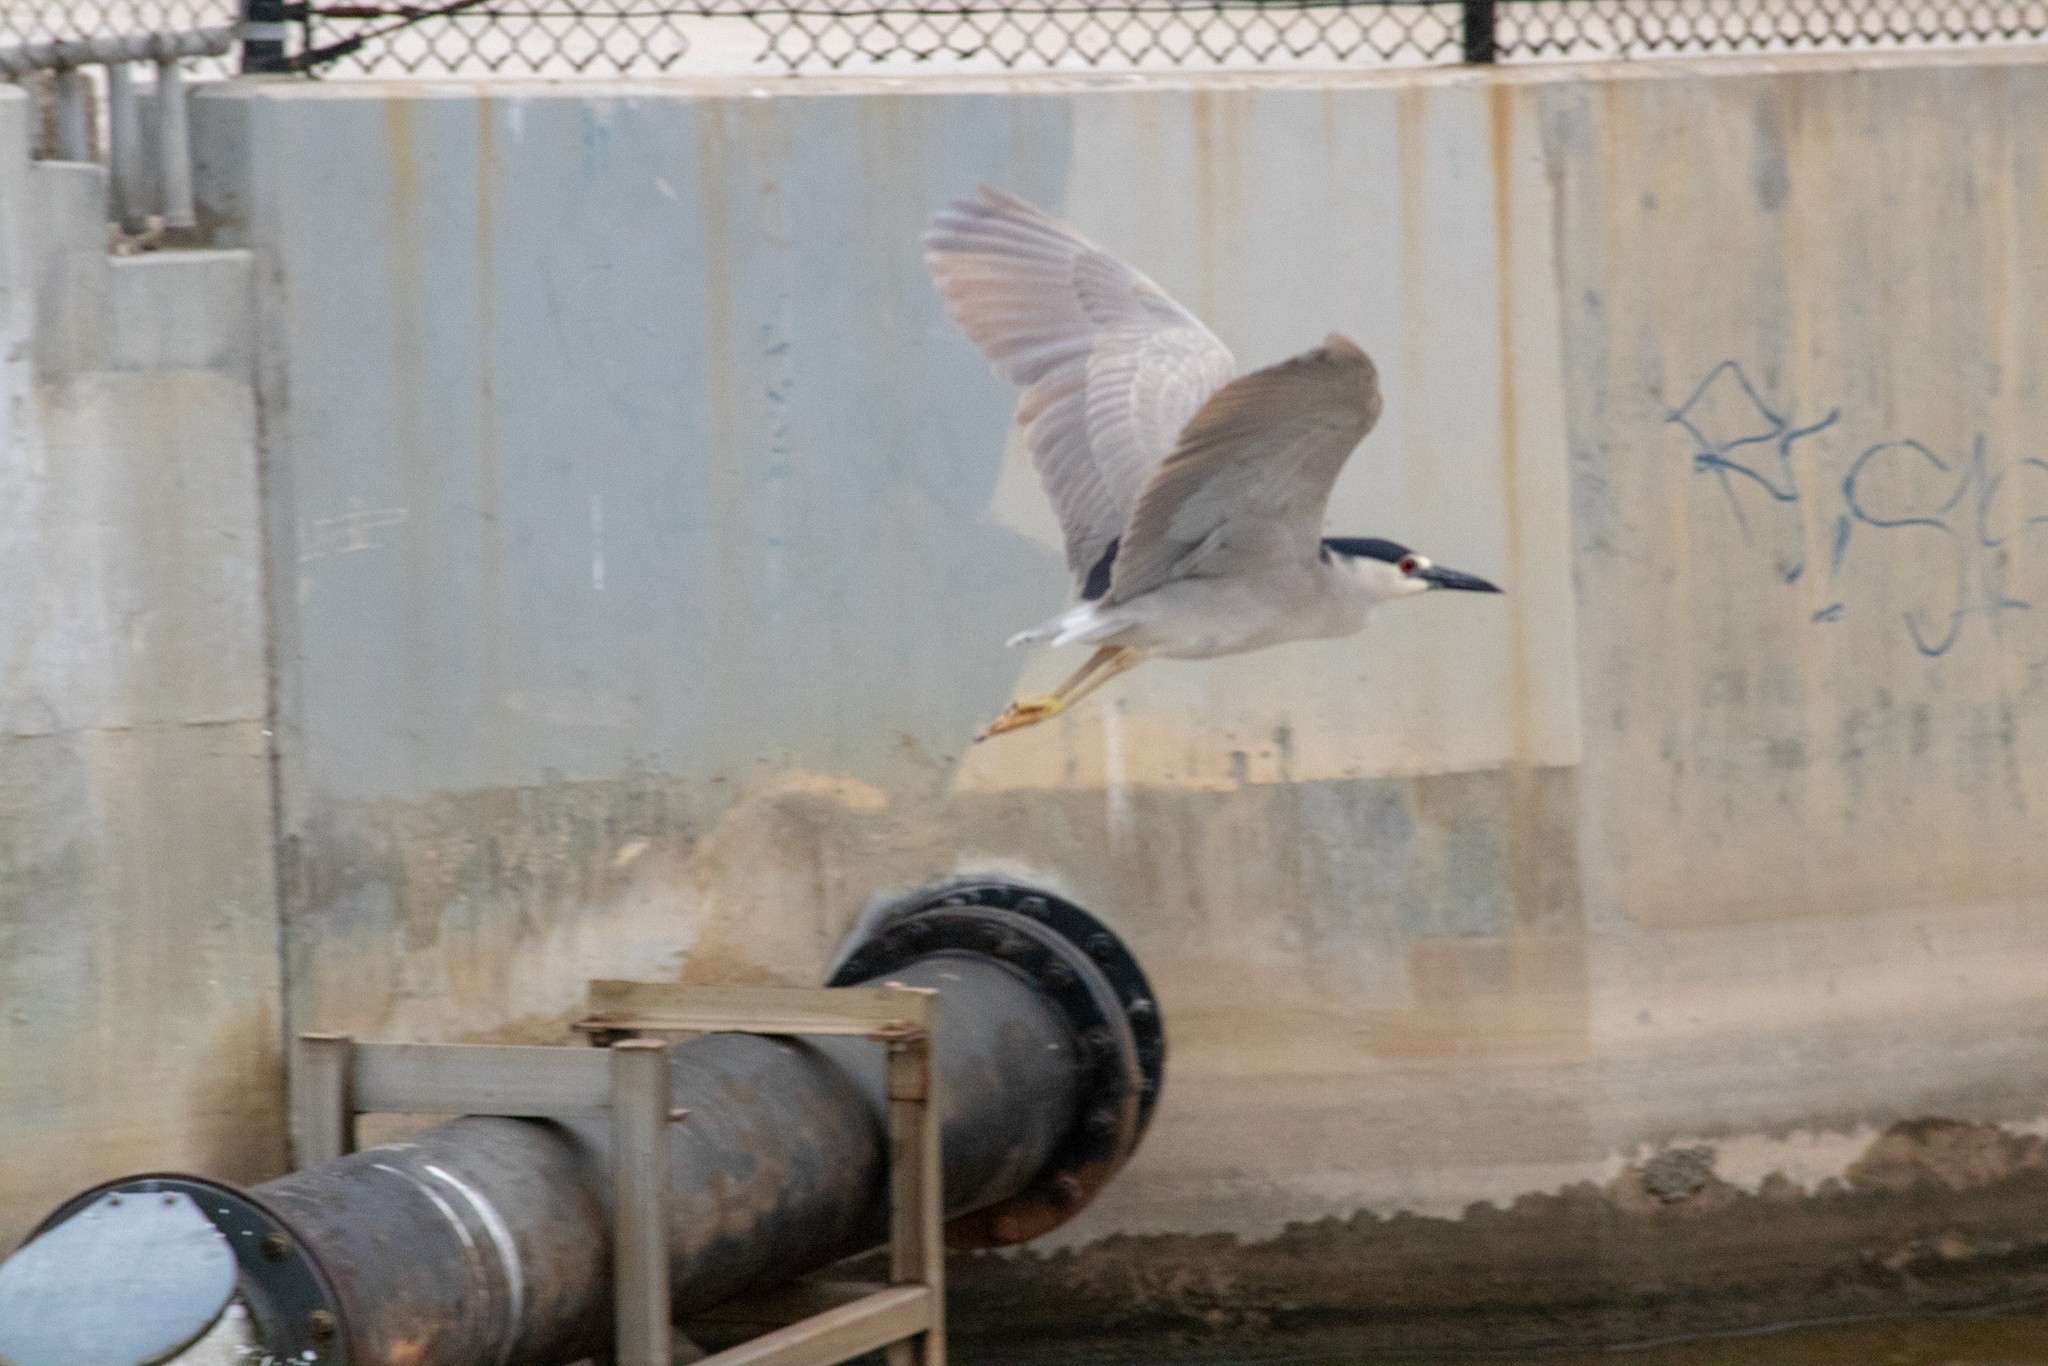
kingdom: Animalia
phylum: Chordata
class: Aves
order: Pelecaniformes
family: Ardeidae
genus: Nycticorax
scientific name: Nycticorax nycticorax
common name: Black-crowned night heron
